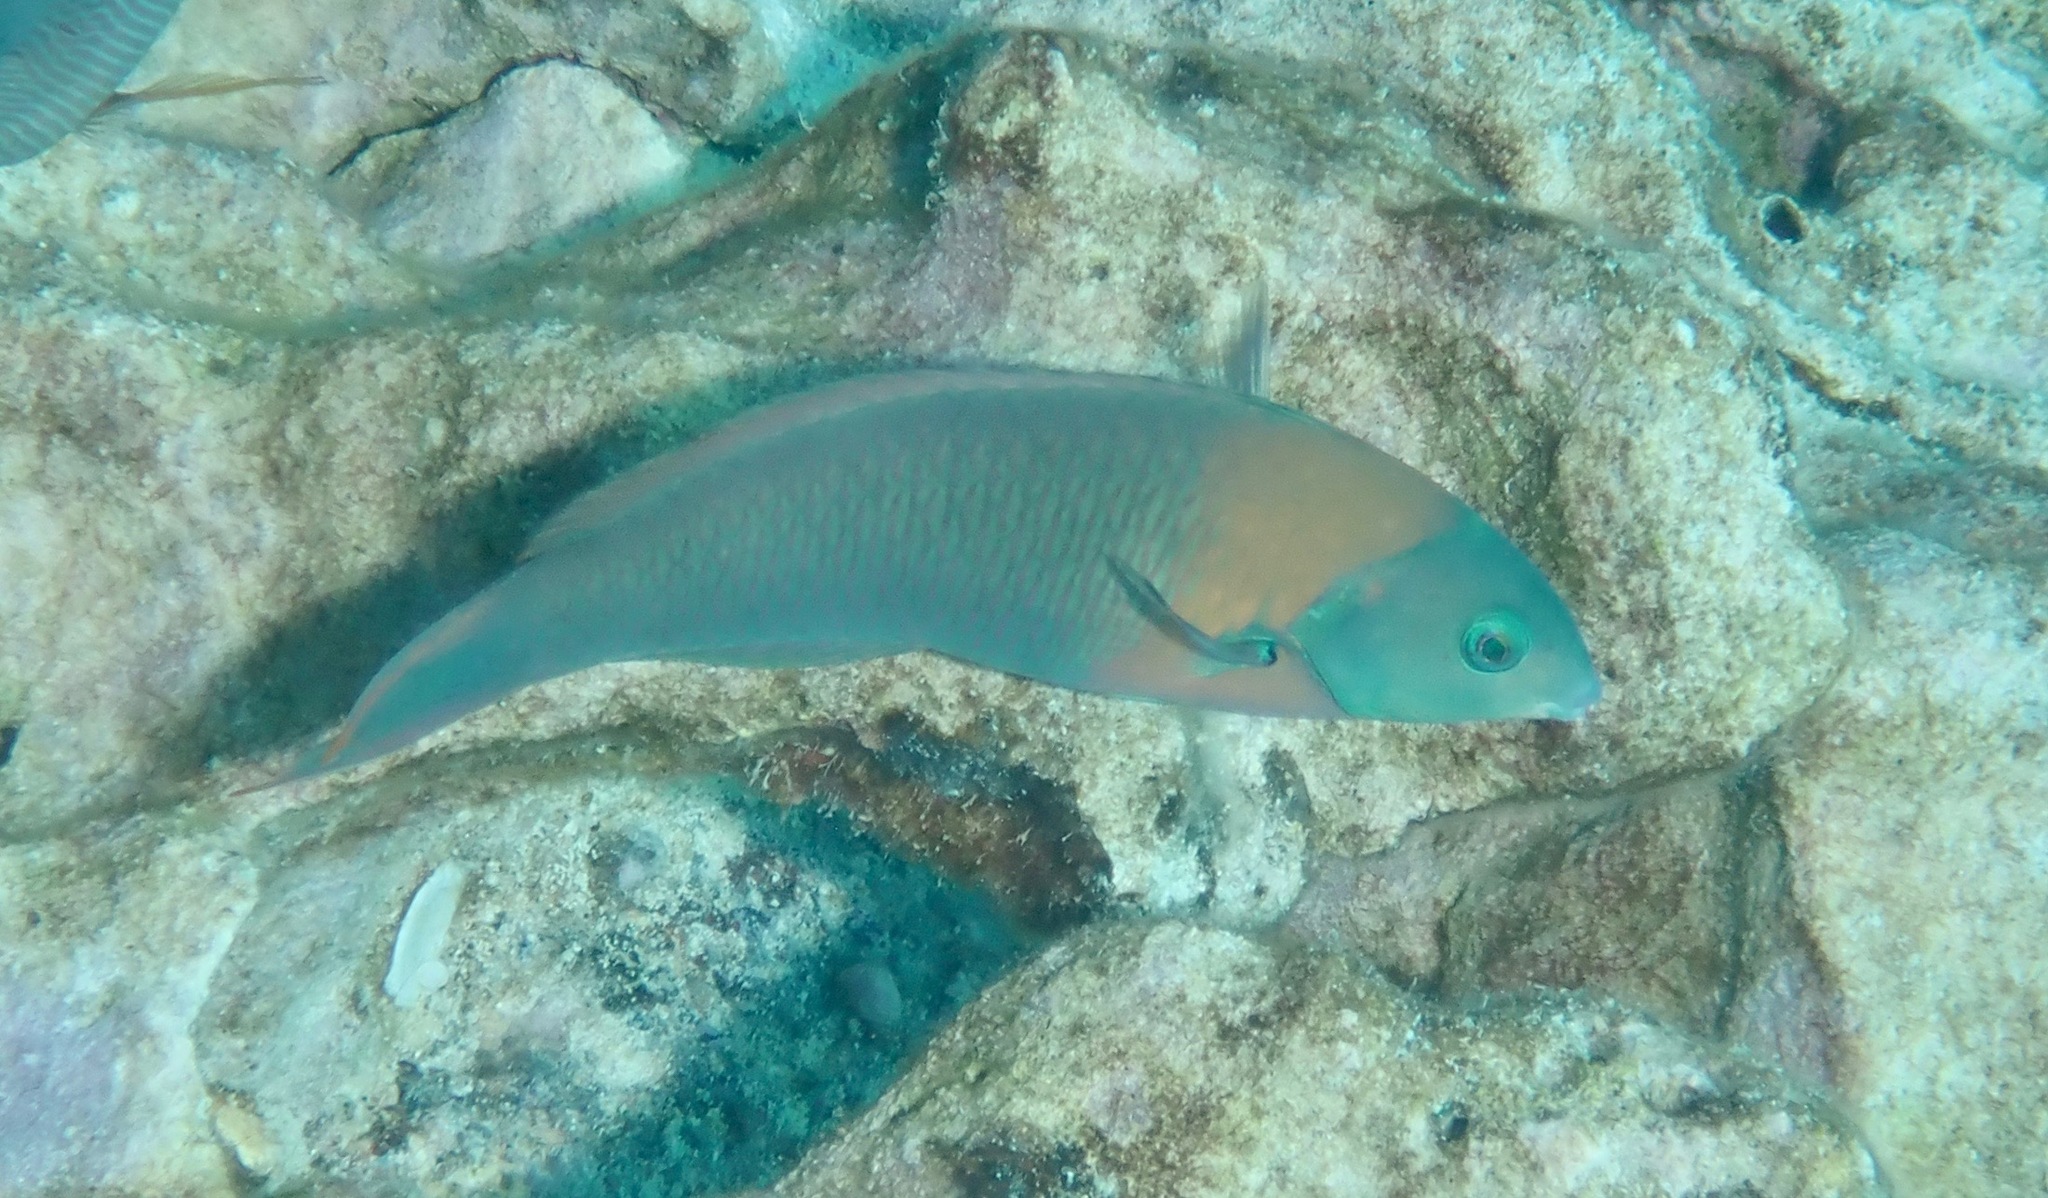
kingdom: Animalia
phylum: Chordata
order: Perciformes
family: Labridae
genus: Thalassoma
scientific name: Thalassoma duperrey
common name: Saddle wrasse
